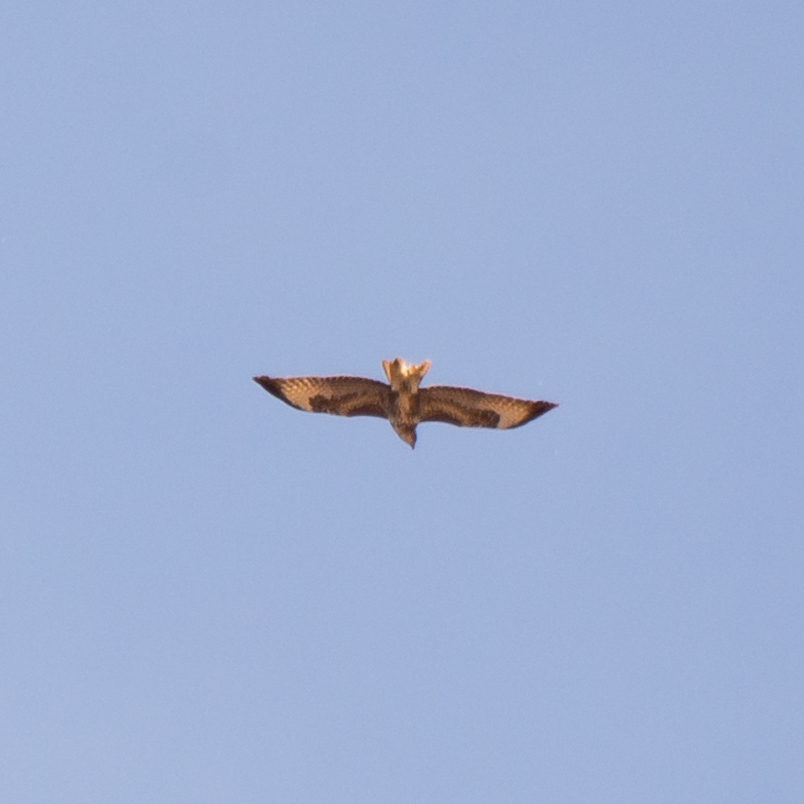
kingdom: Animalia
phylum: Chordata
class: Aves
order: Accipitriformes
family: Accipitridae
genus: Buteo
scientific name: Buteo buteo
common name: Common buzzard
